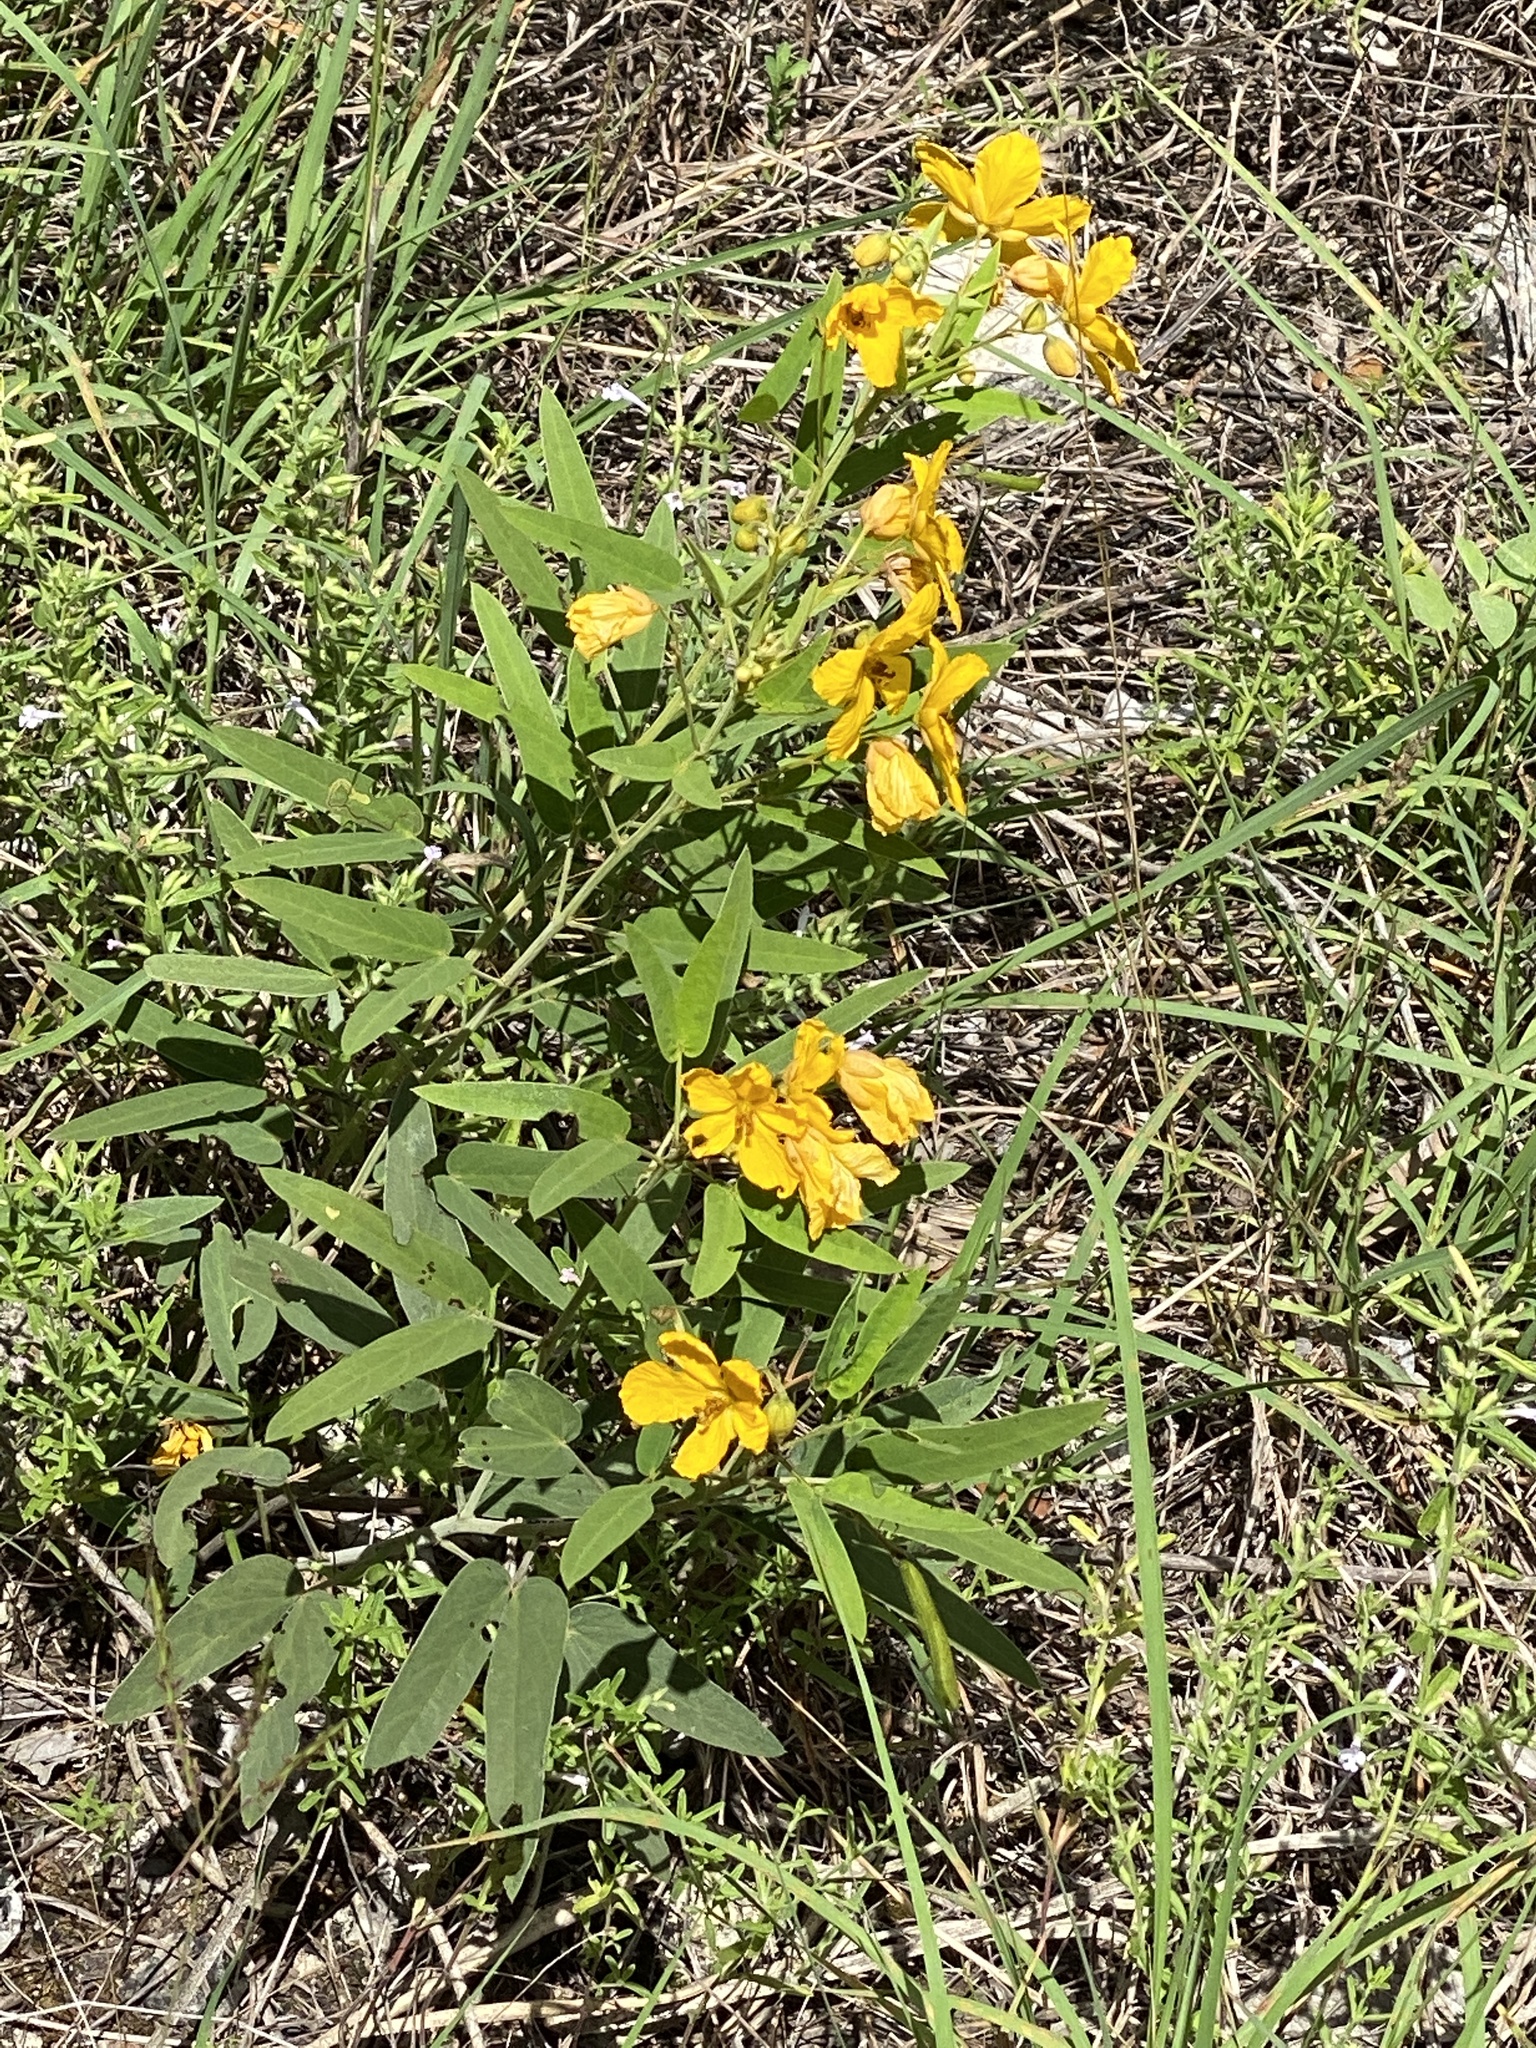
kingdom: Plantae
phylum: Tracheophyta
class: Magnoliopsida
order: Fabales
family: Fabaceae
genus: Senna
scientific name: Senna roemeriana
